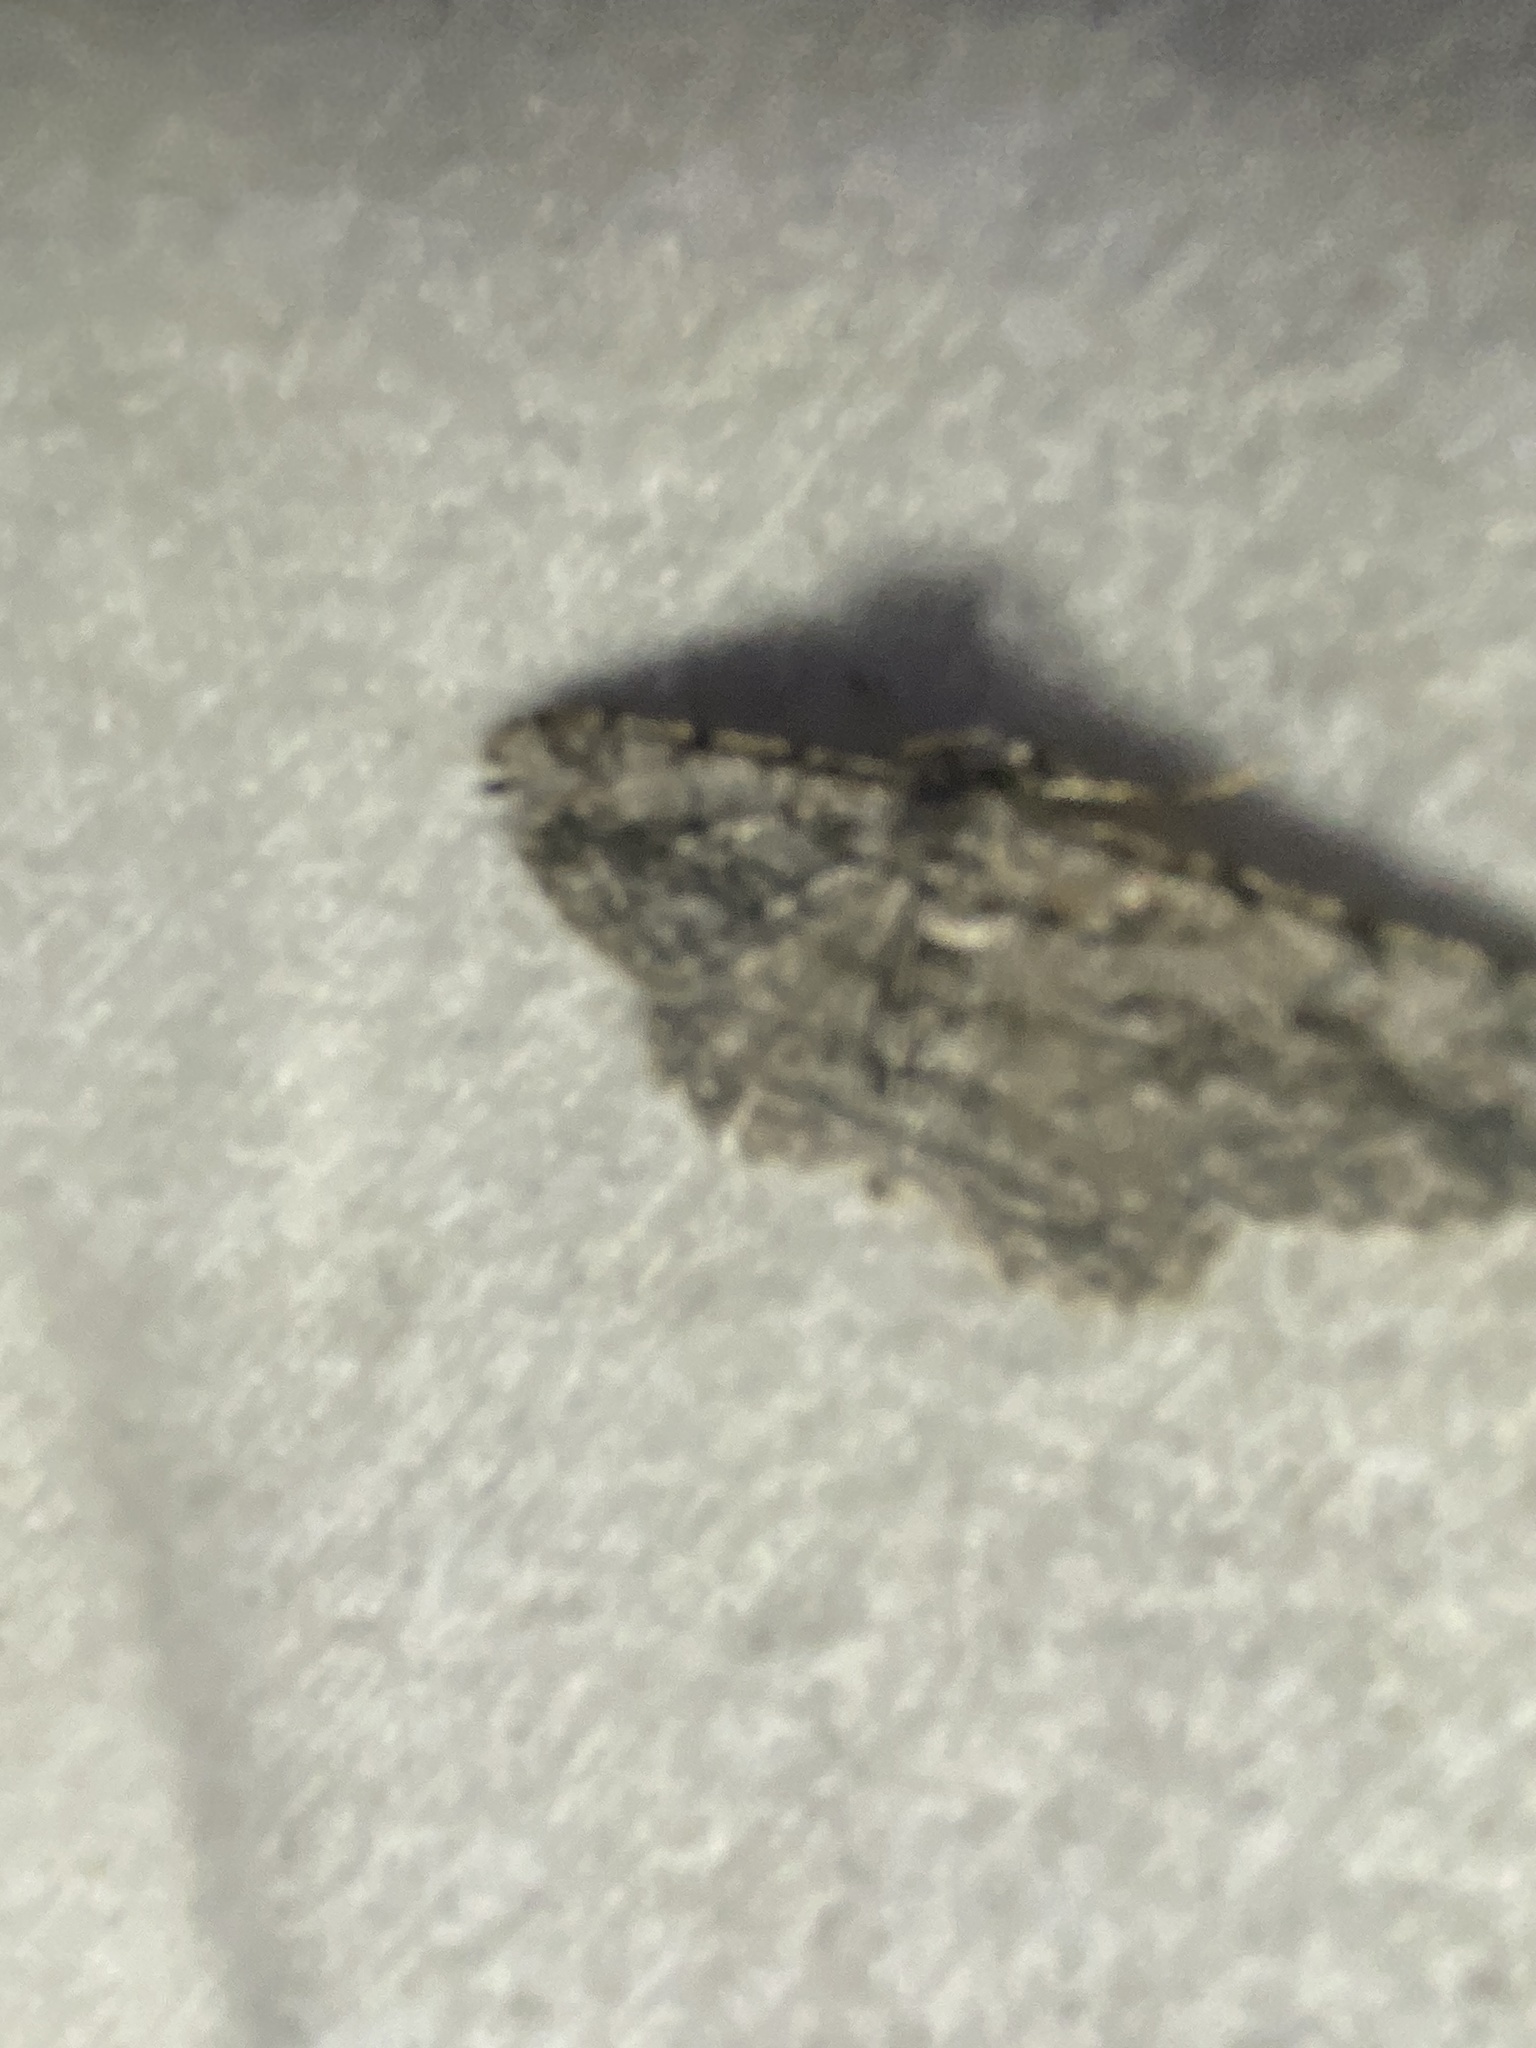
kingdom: Animalia
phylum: Arthropoda
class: Insecta
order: Lepidoptera
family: Geometridae
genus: Anavitrinella
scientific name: Anavitrinella pampinaria
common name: Common gray
